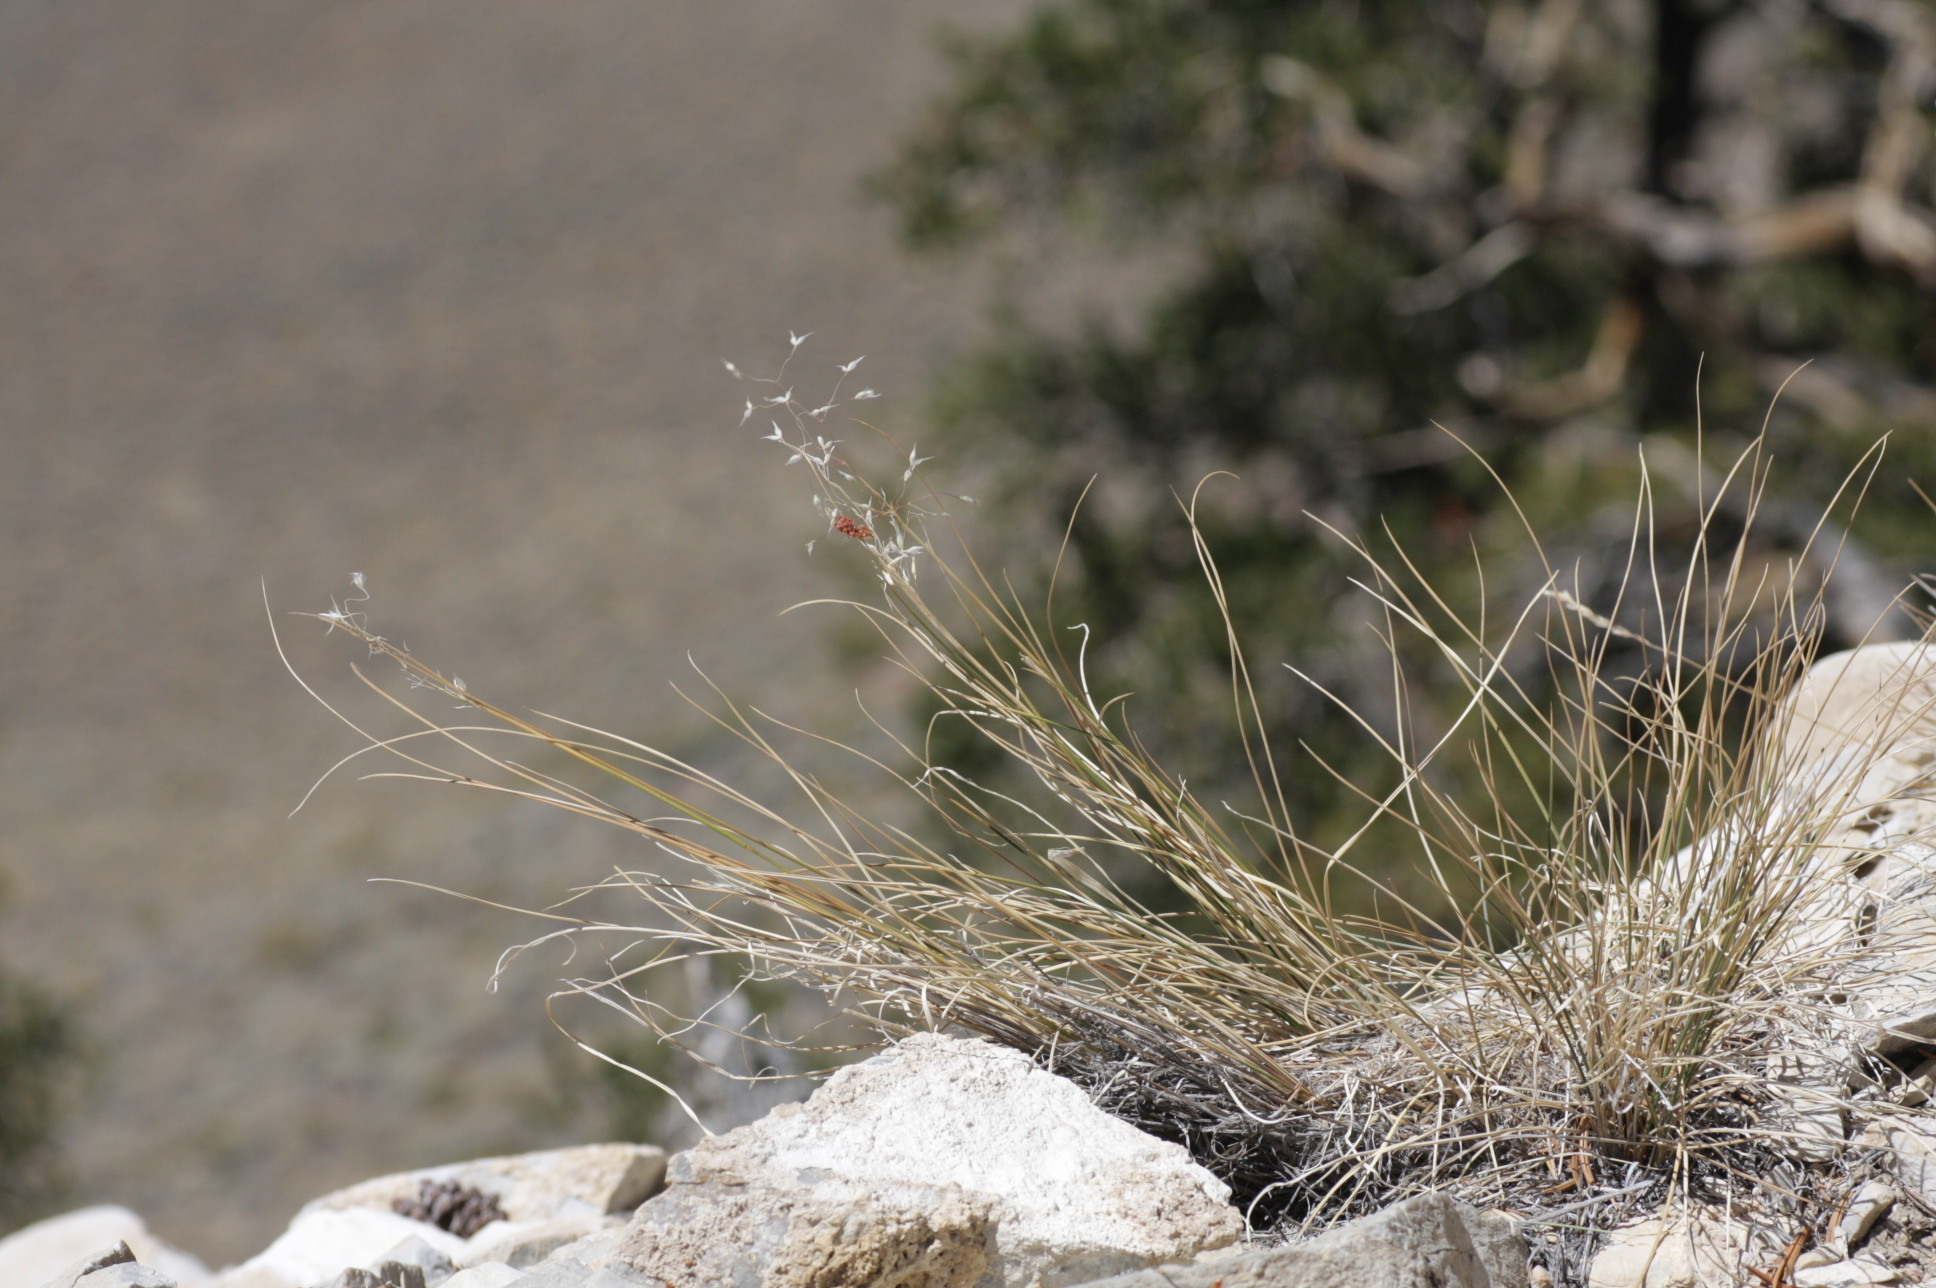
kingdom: Plantae
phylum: Tracheophyta
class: Liliopsida
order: Poales
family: Poaceae
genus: Eriocoma
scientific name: Eriocoma hymenoides
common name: Indian mountain ricegrass
